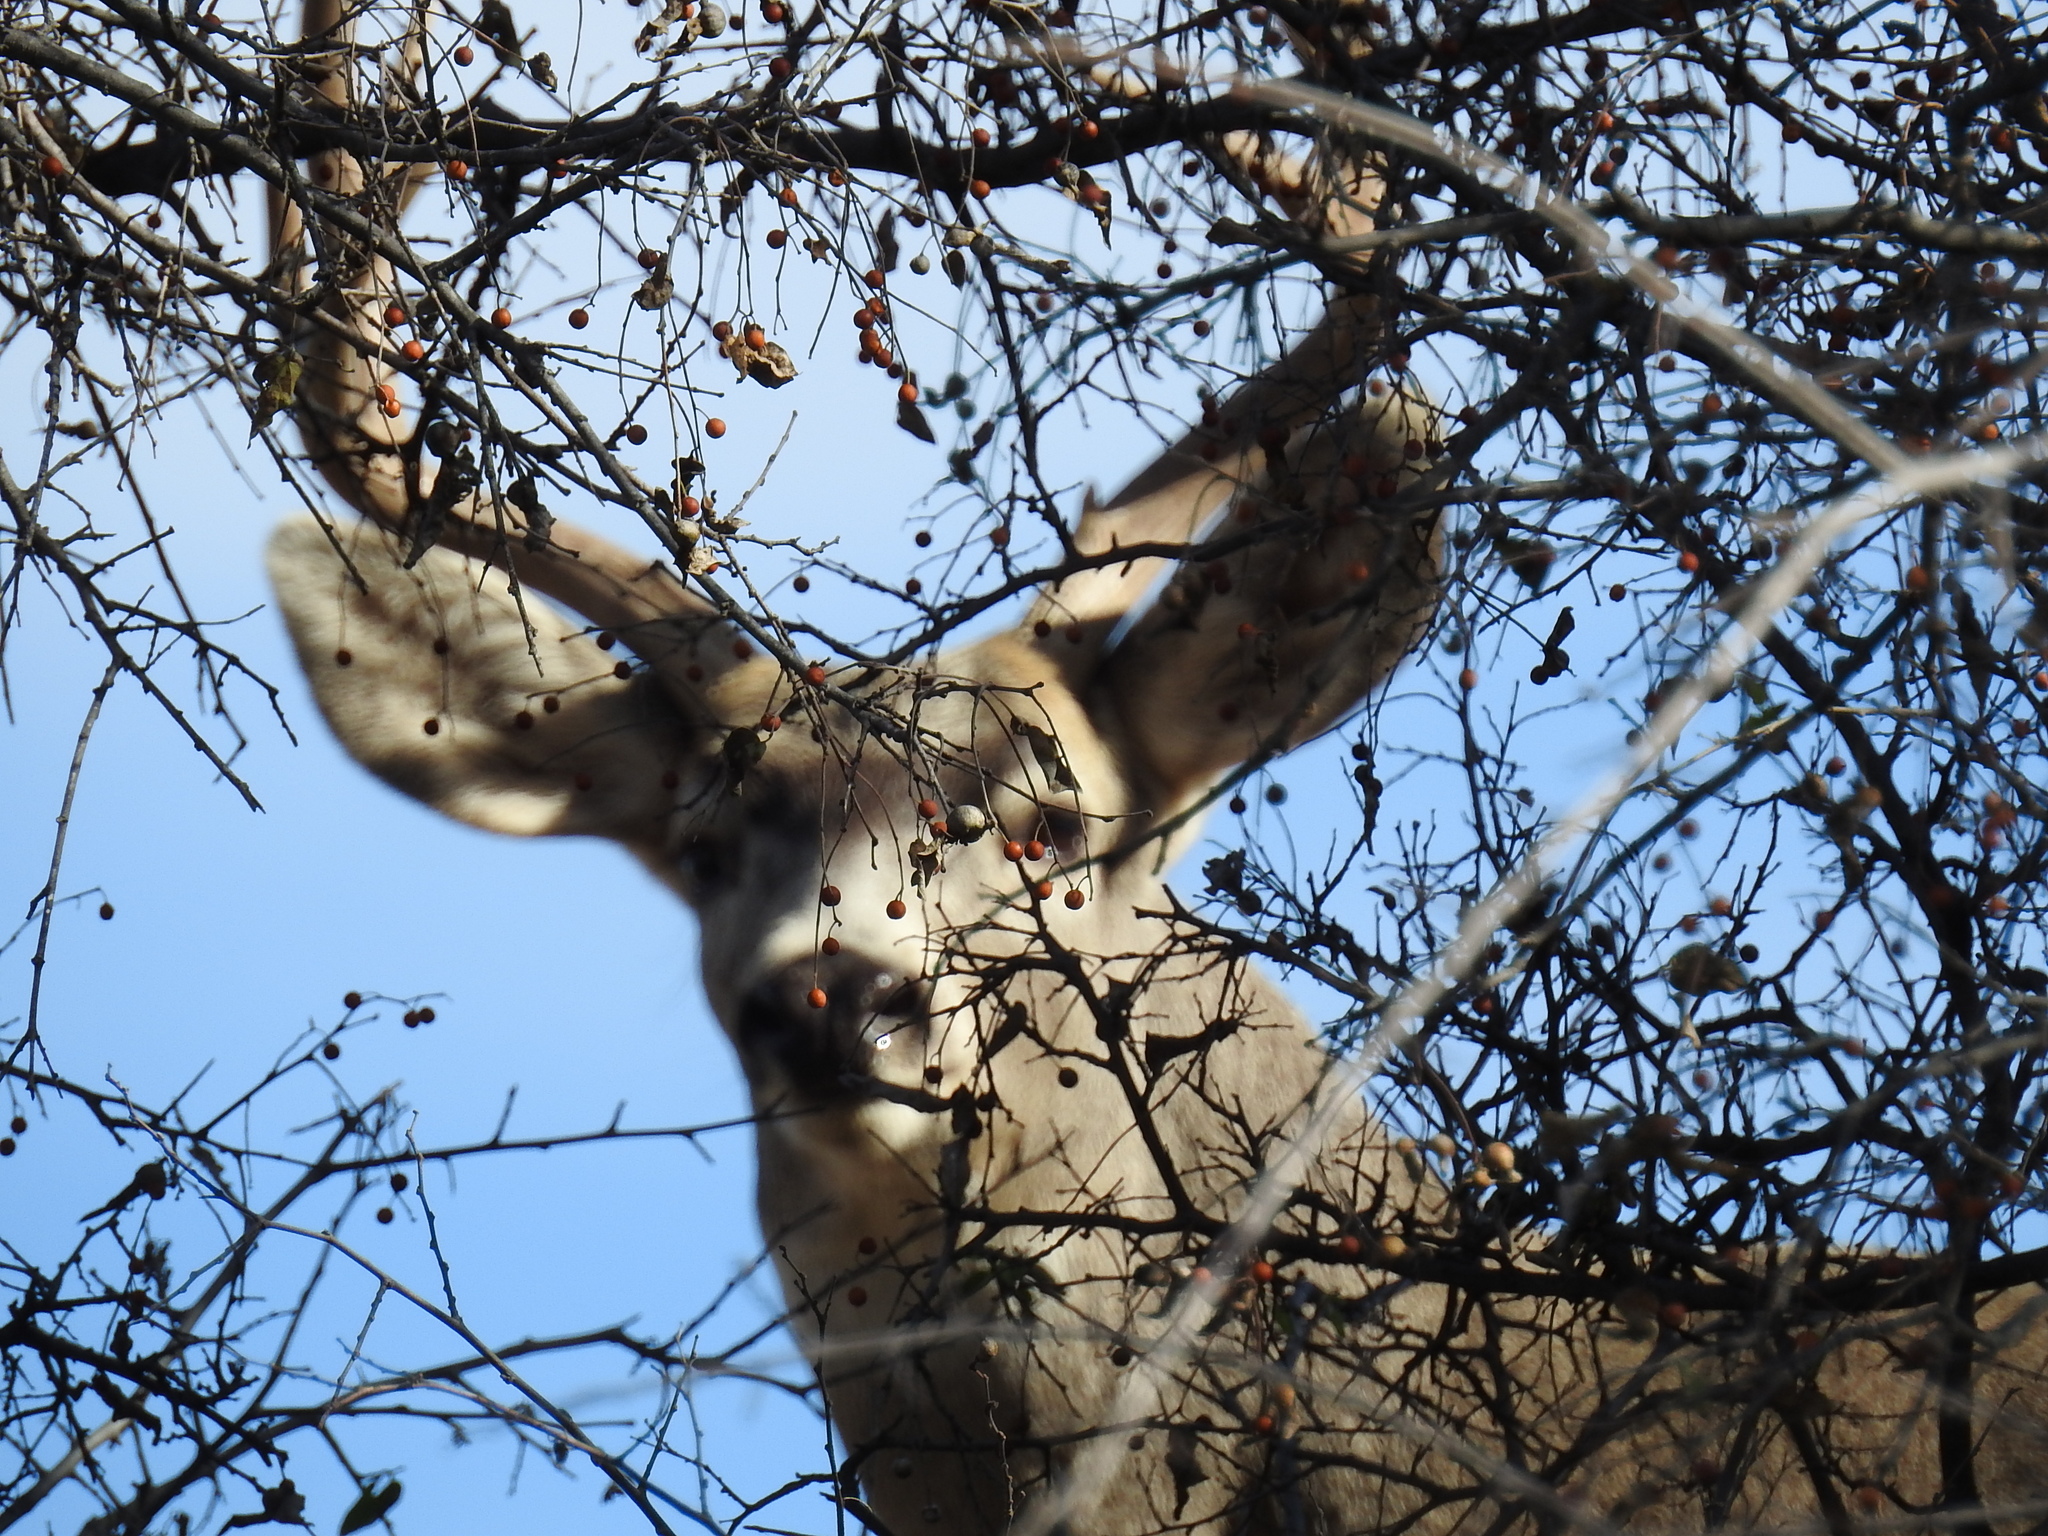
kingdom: Animalia
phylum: Chordata
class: Mammalia
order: Artiodactyla
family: Cervidae
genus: Odocoileus
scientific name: Odocoileus hemionus
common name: Mule deer
